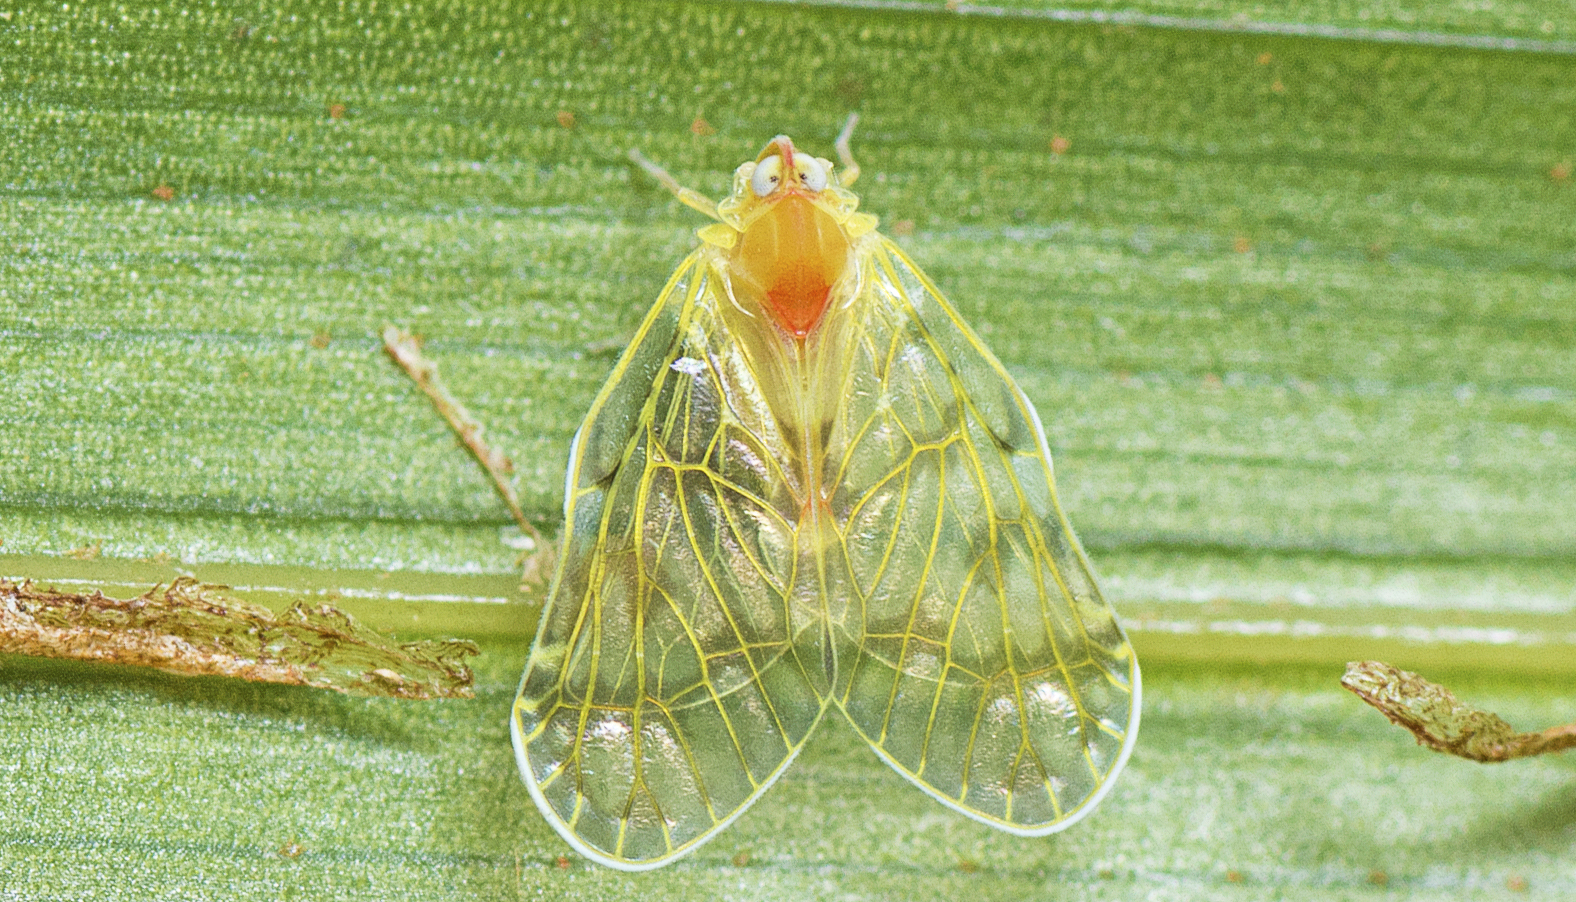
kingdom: Animalia
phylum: Arthropoda
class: Insecta
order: Hemiptera
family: Derbidae
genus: Saccharodite
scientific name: Saccharodite chrysonoe
